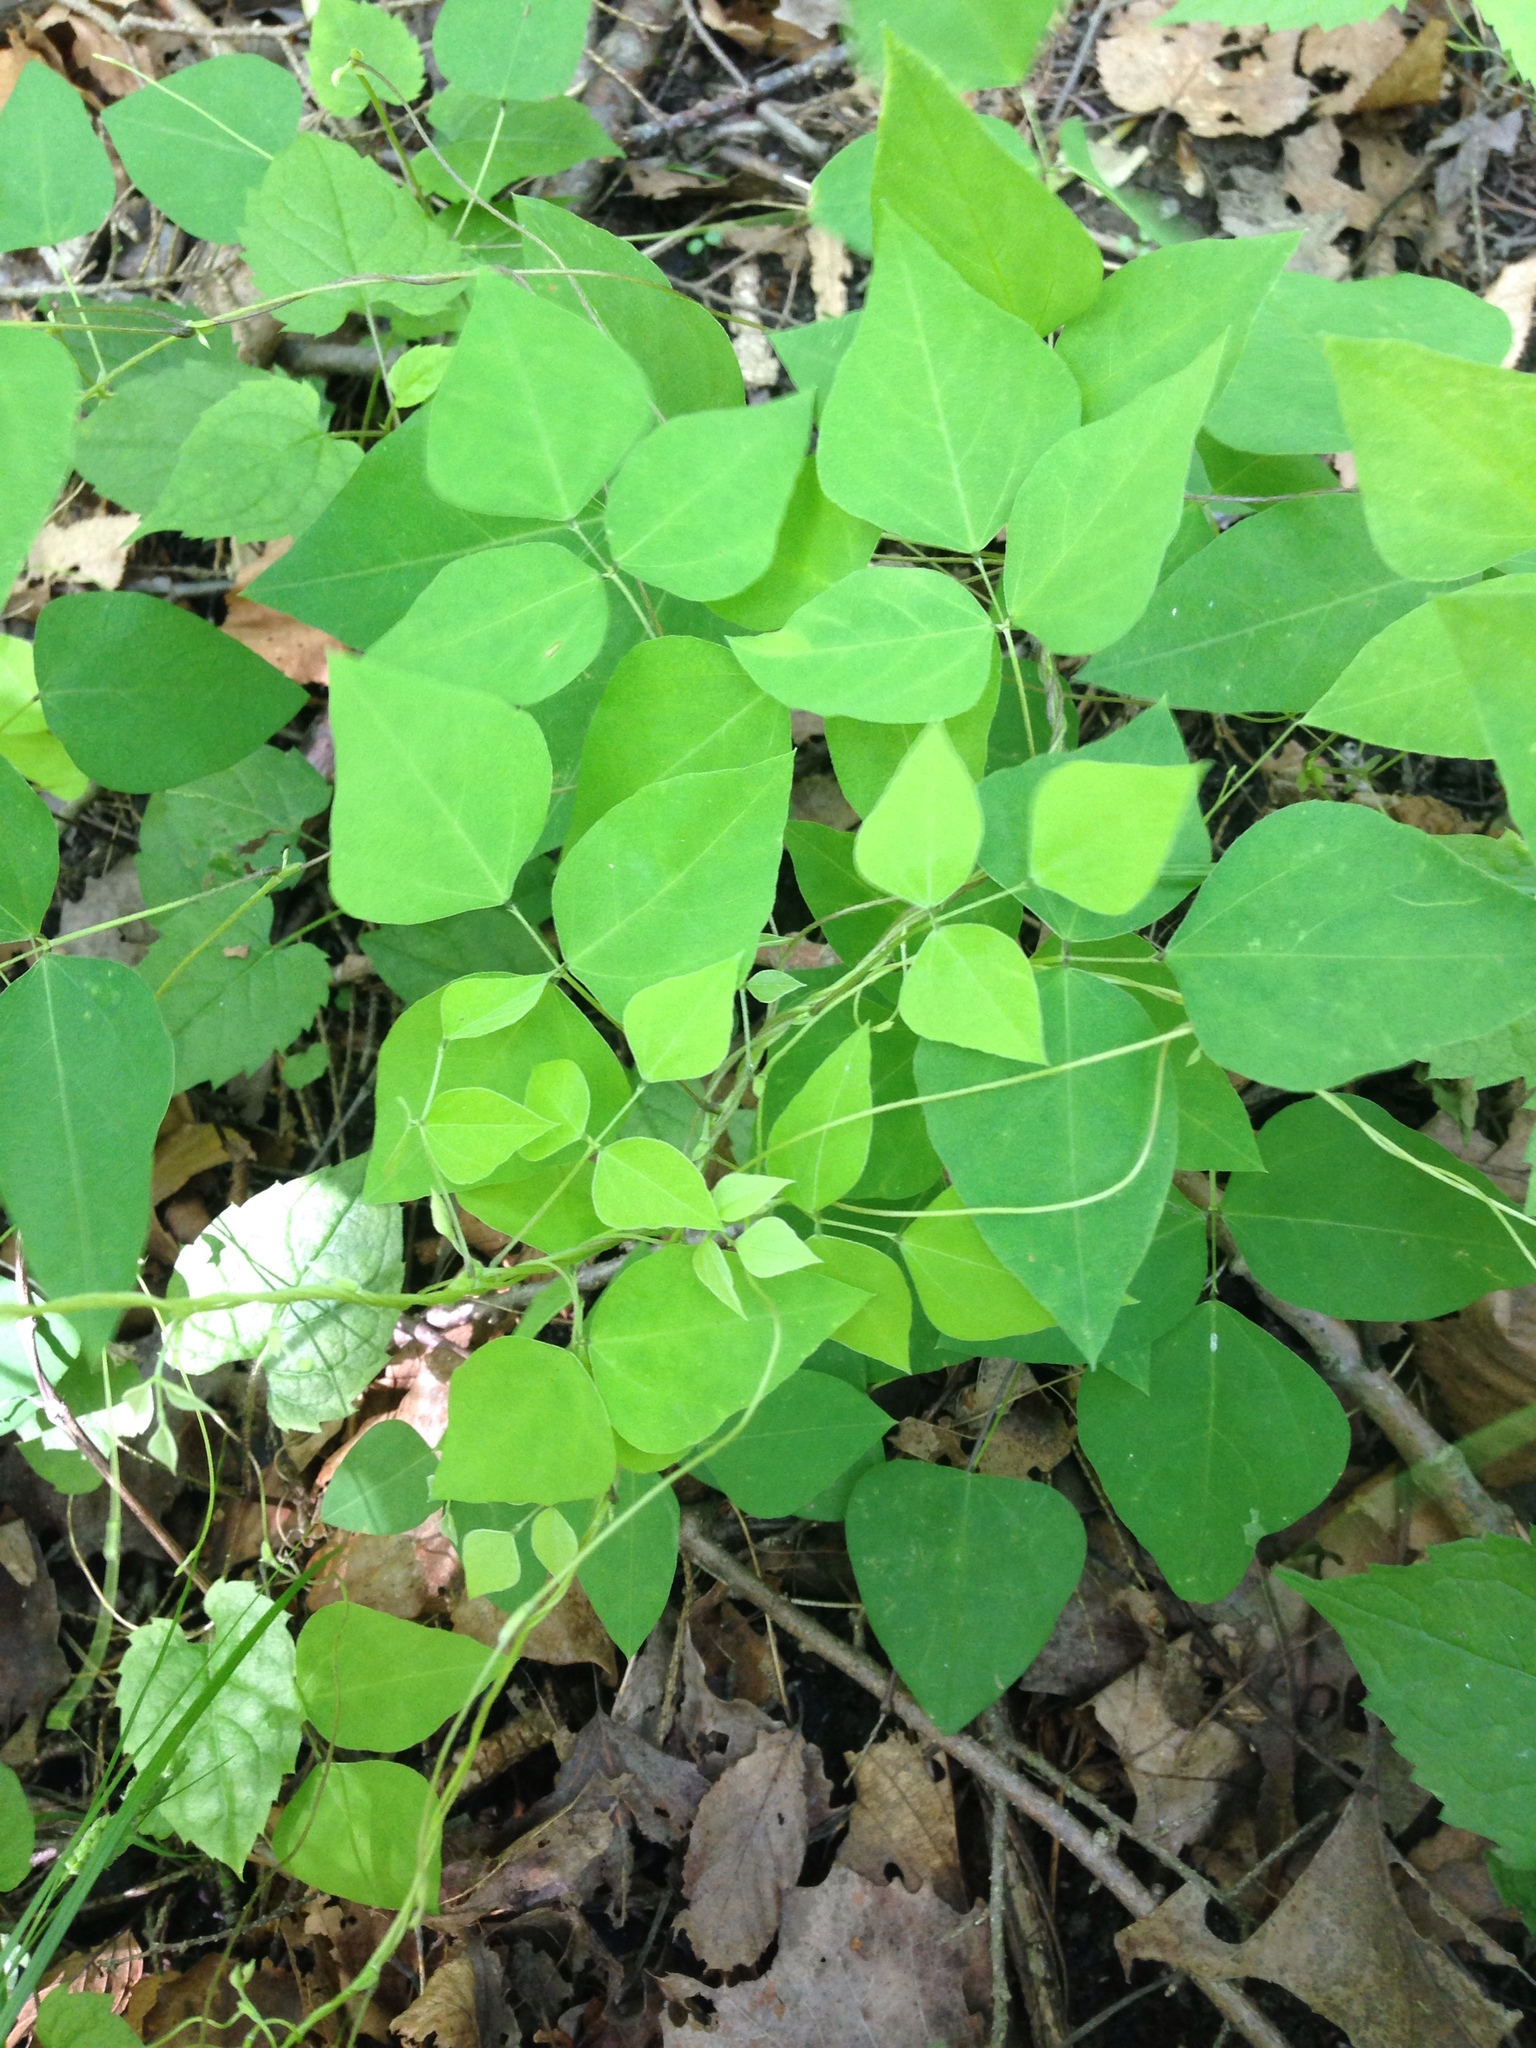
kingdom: Plantae
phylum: Tracheophyta
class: Magnoliopsida
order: Fabales
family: Fabaceae
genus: Amphicarpaea
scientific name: Amphicarpaea bracteata
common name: American hog peanut
